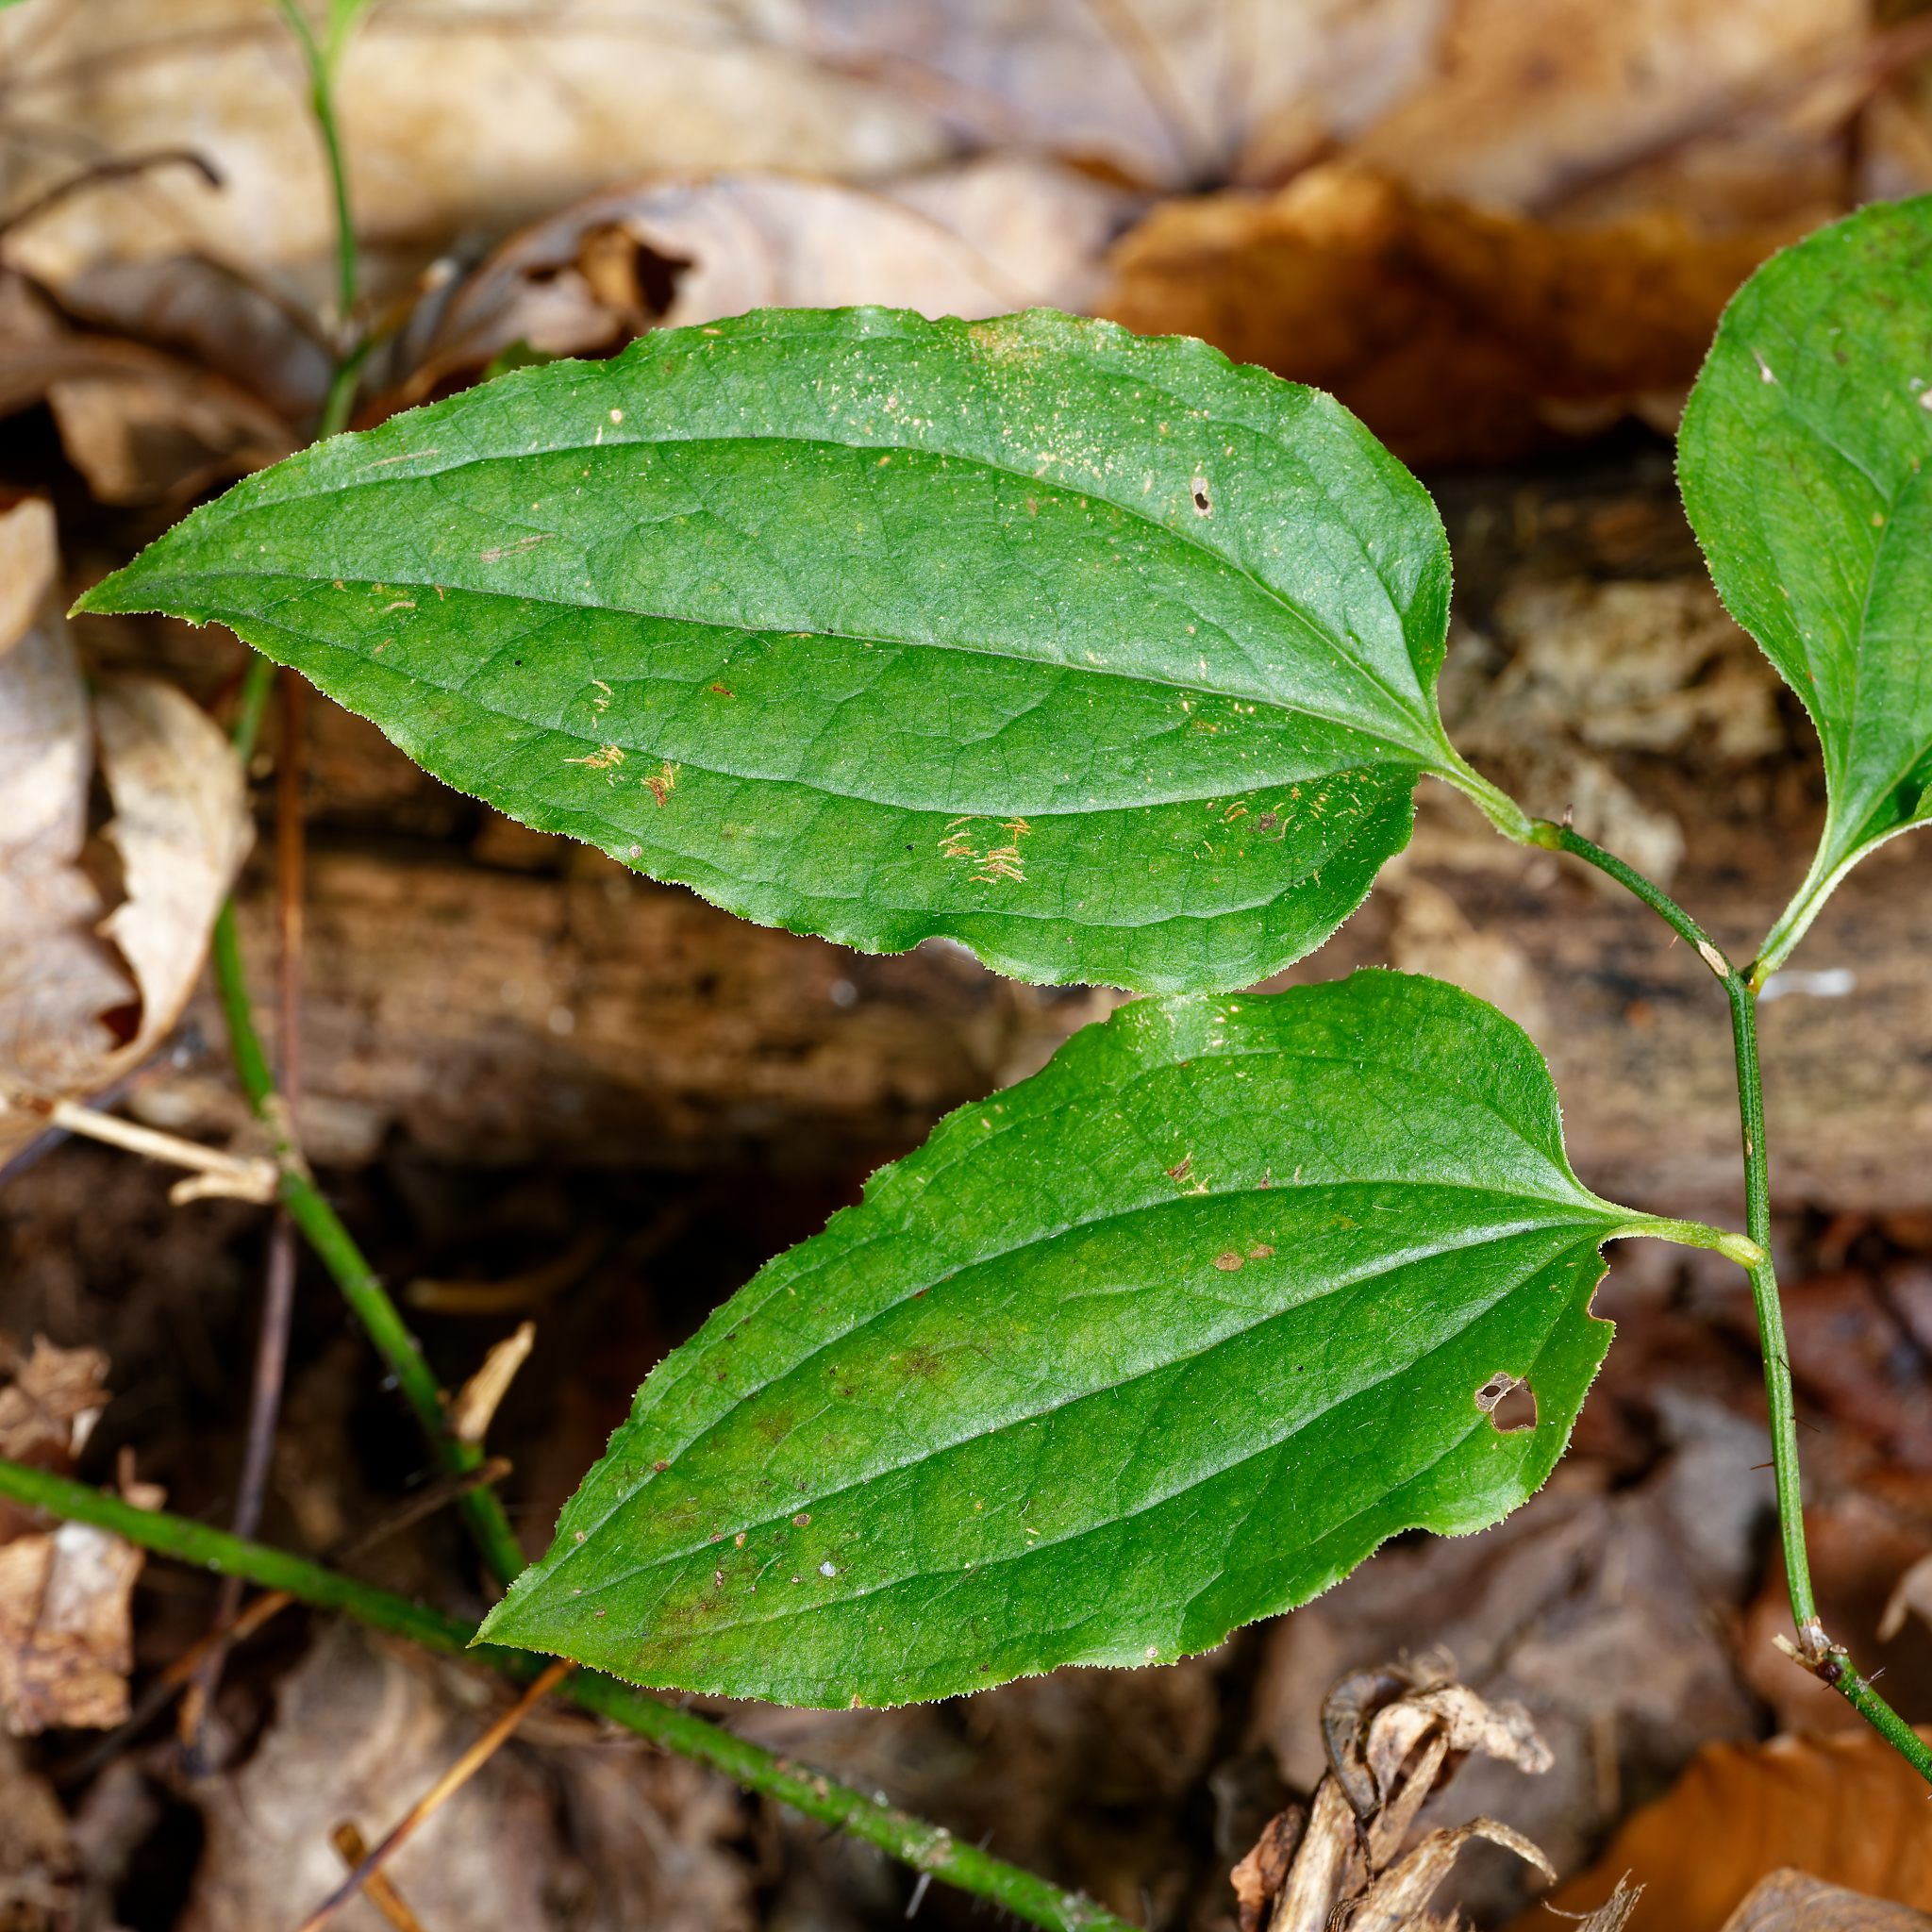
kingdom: Plantae
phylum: Tracheophyta
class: Liliopsida
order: Liliales
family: Smilacaceae
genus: Smilax
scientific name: Smilax tamnoides
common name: Hellfetter
